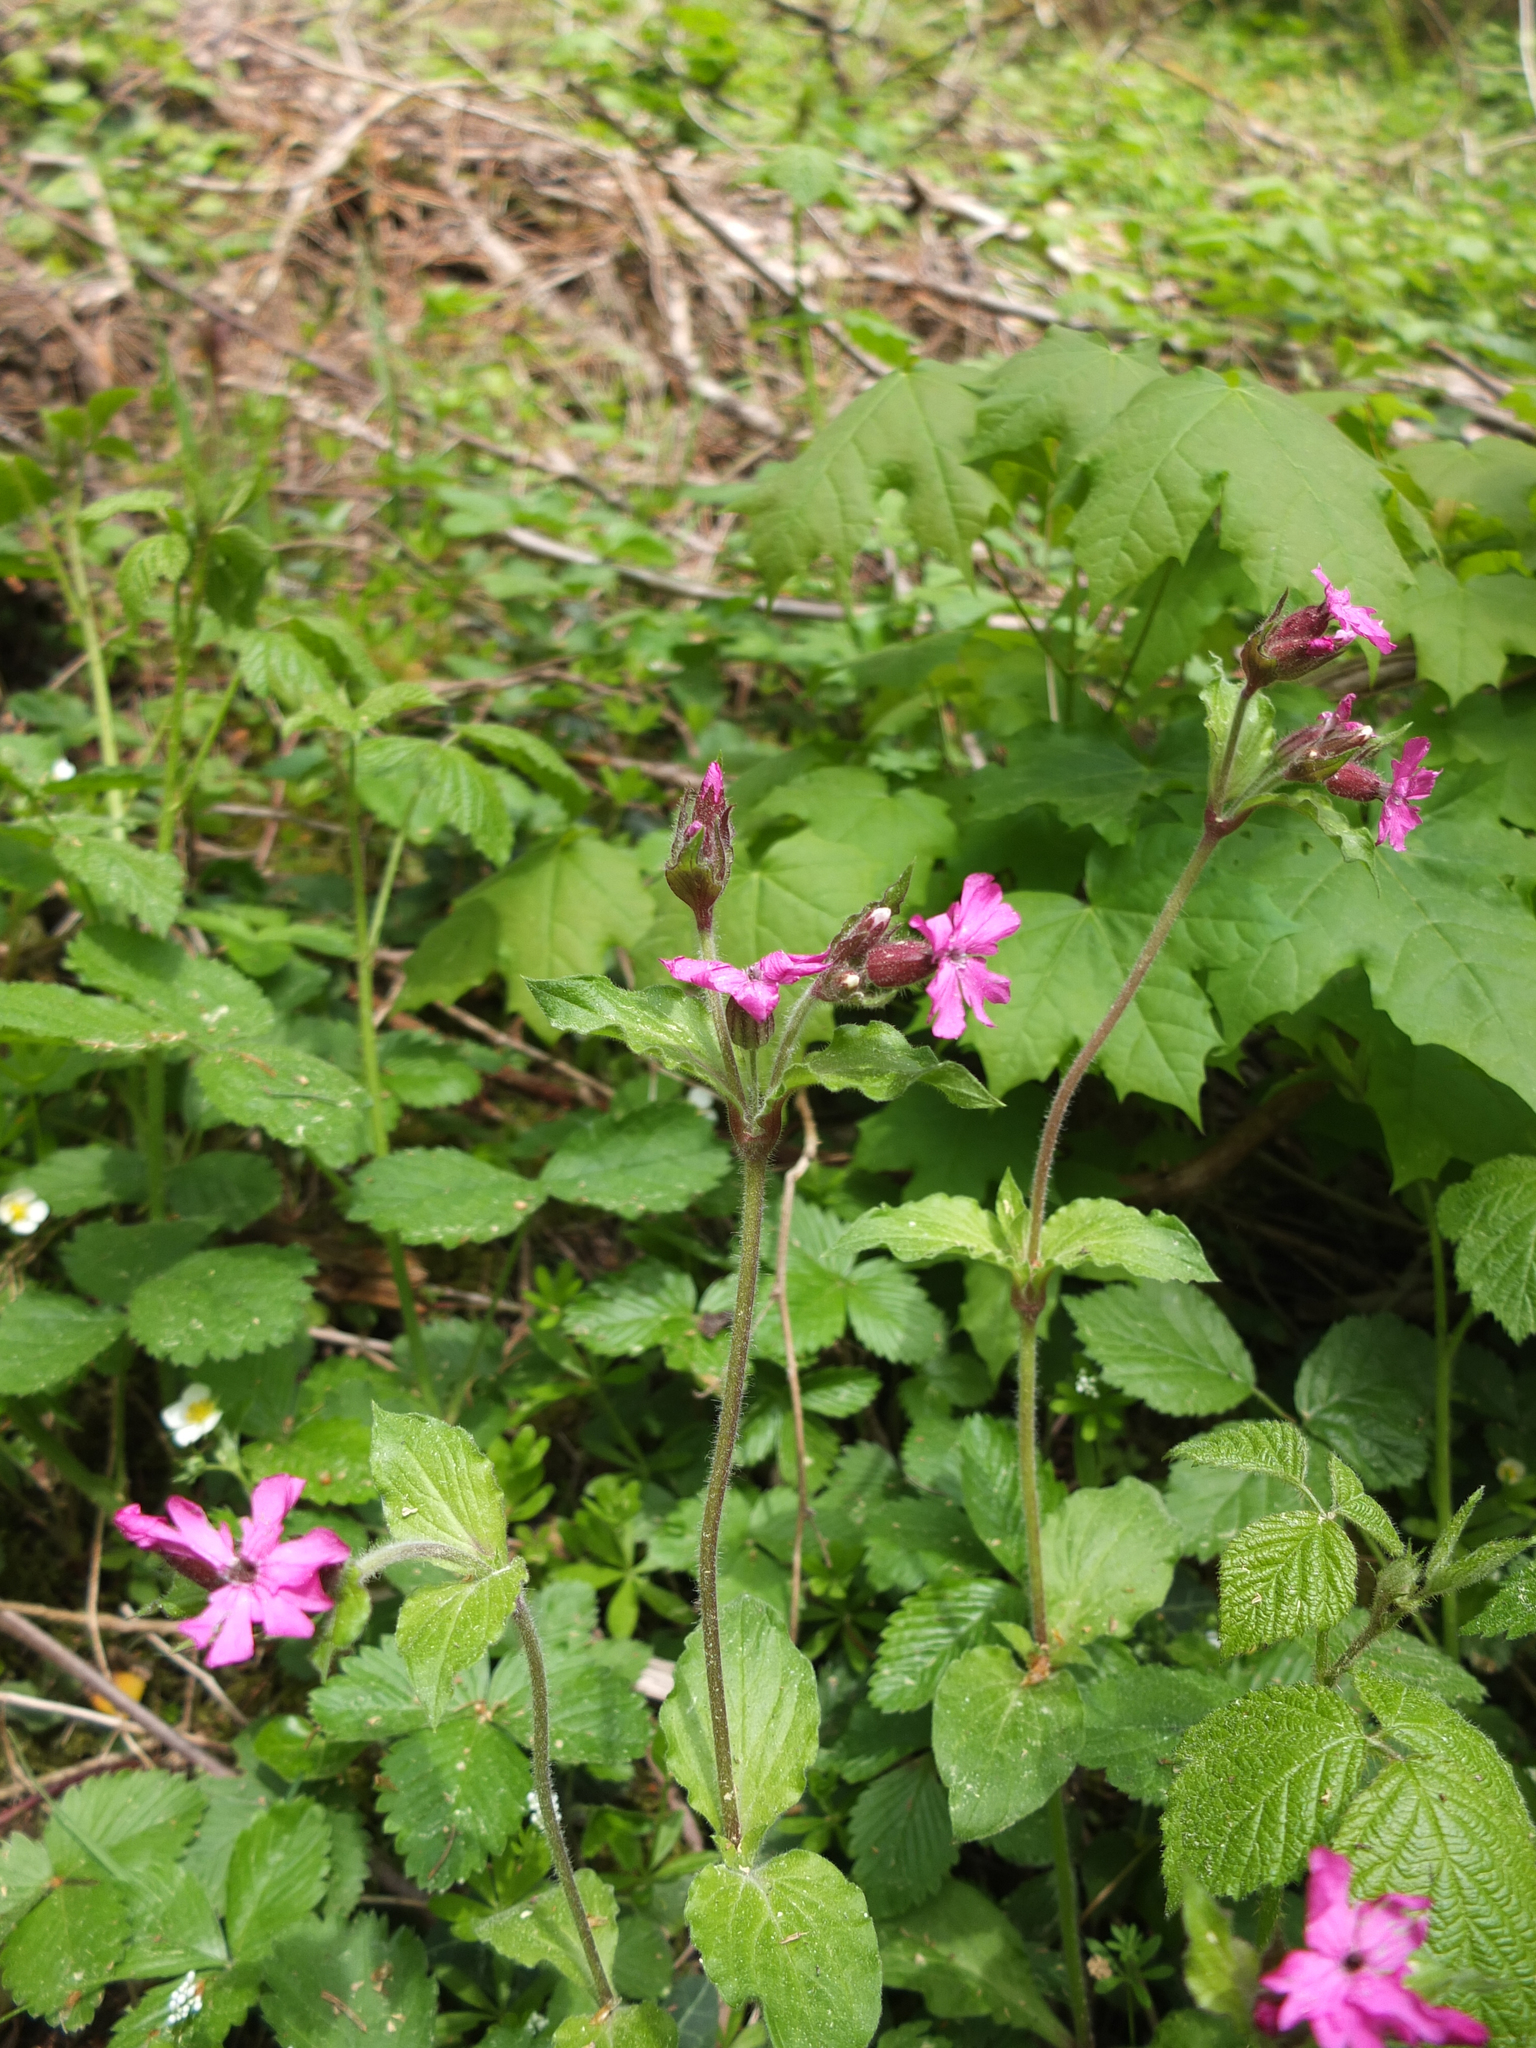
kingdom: Plantae
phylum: Tracheophyta
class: Magnoliopsida
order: Caryophyllales
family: Caryophyllaceae
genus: Silene
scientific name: Silene dioica
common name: Red campion
